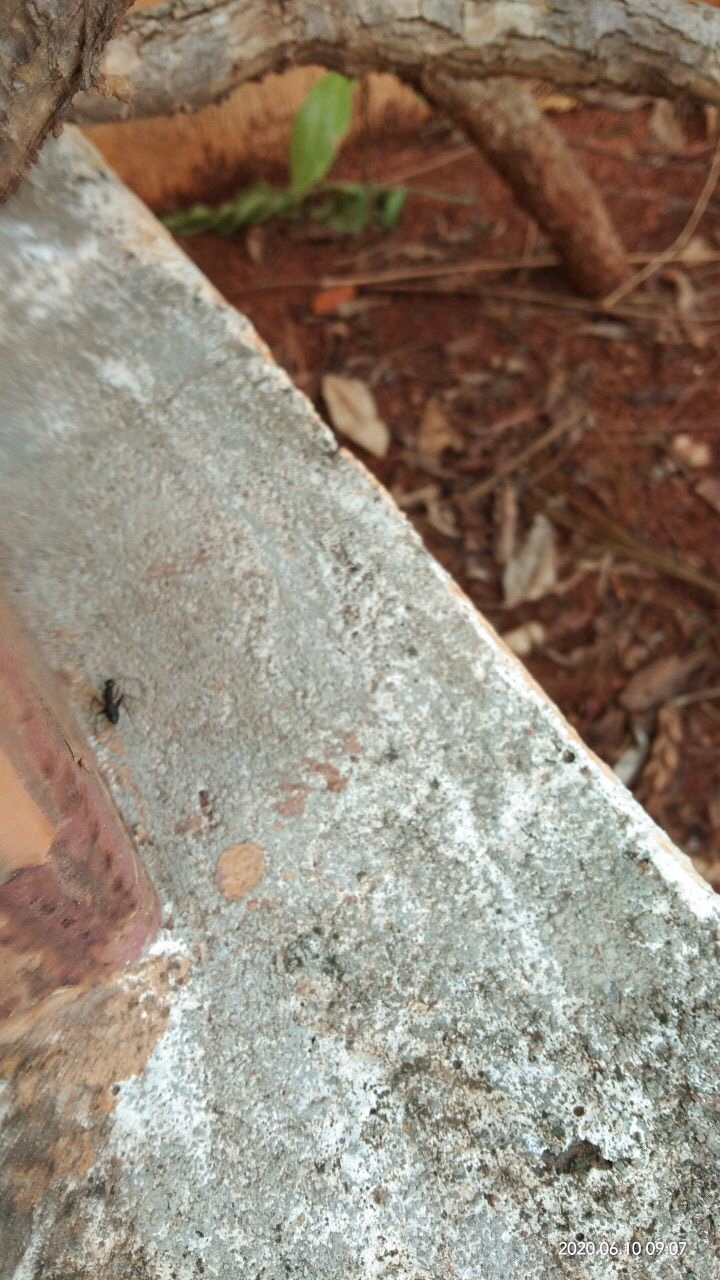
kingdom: Animalia
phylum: Arthropoda
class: Insecta
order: Hymenoptera
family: Formicidae
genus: Camponotus
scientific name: Camponotus compressus
